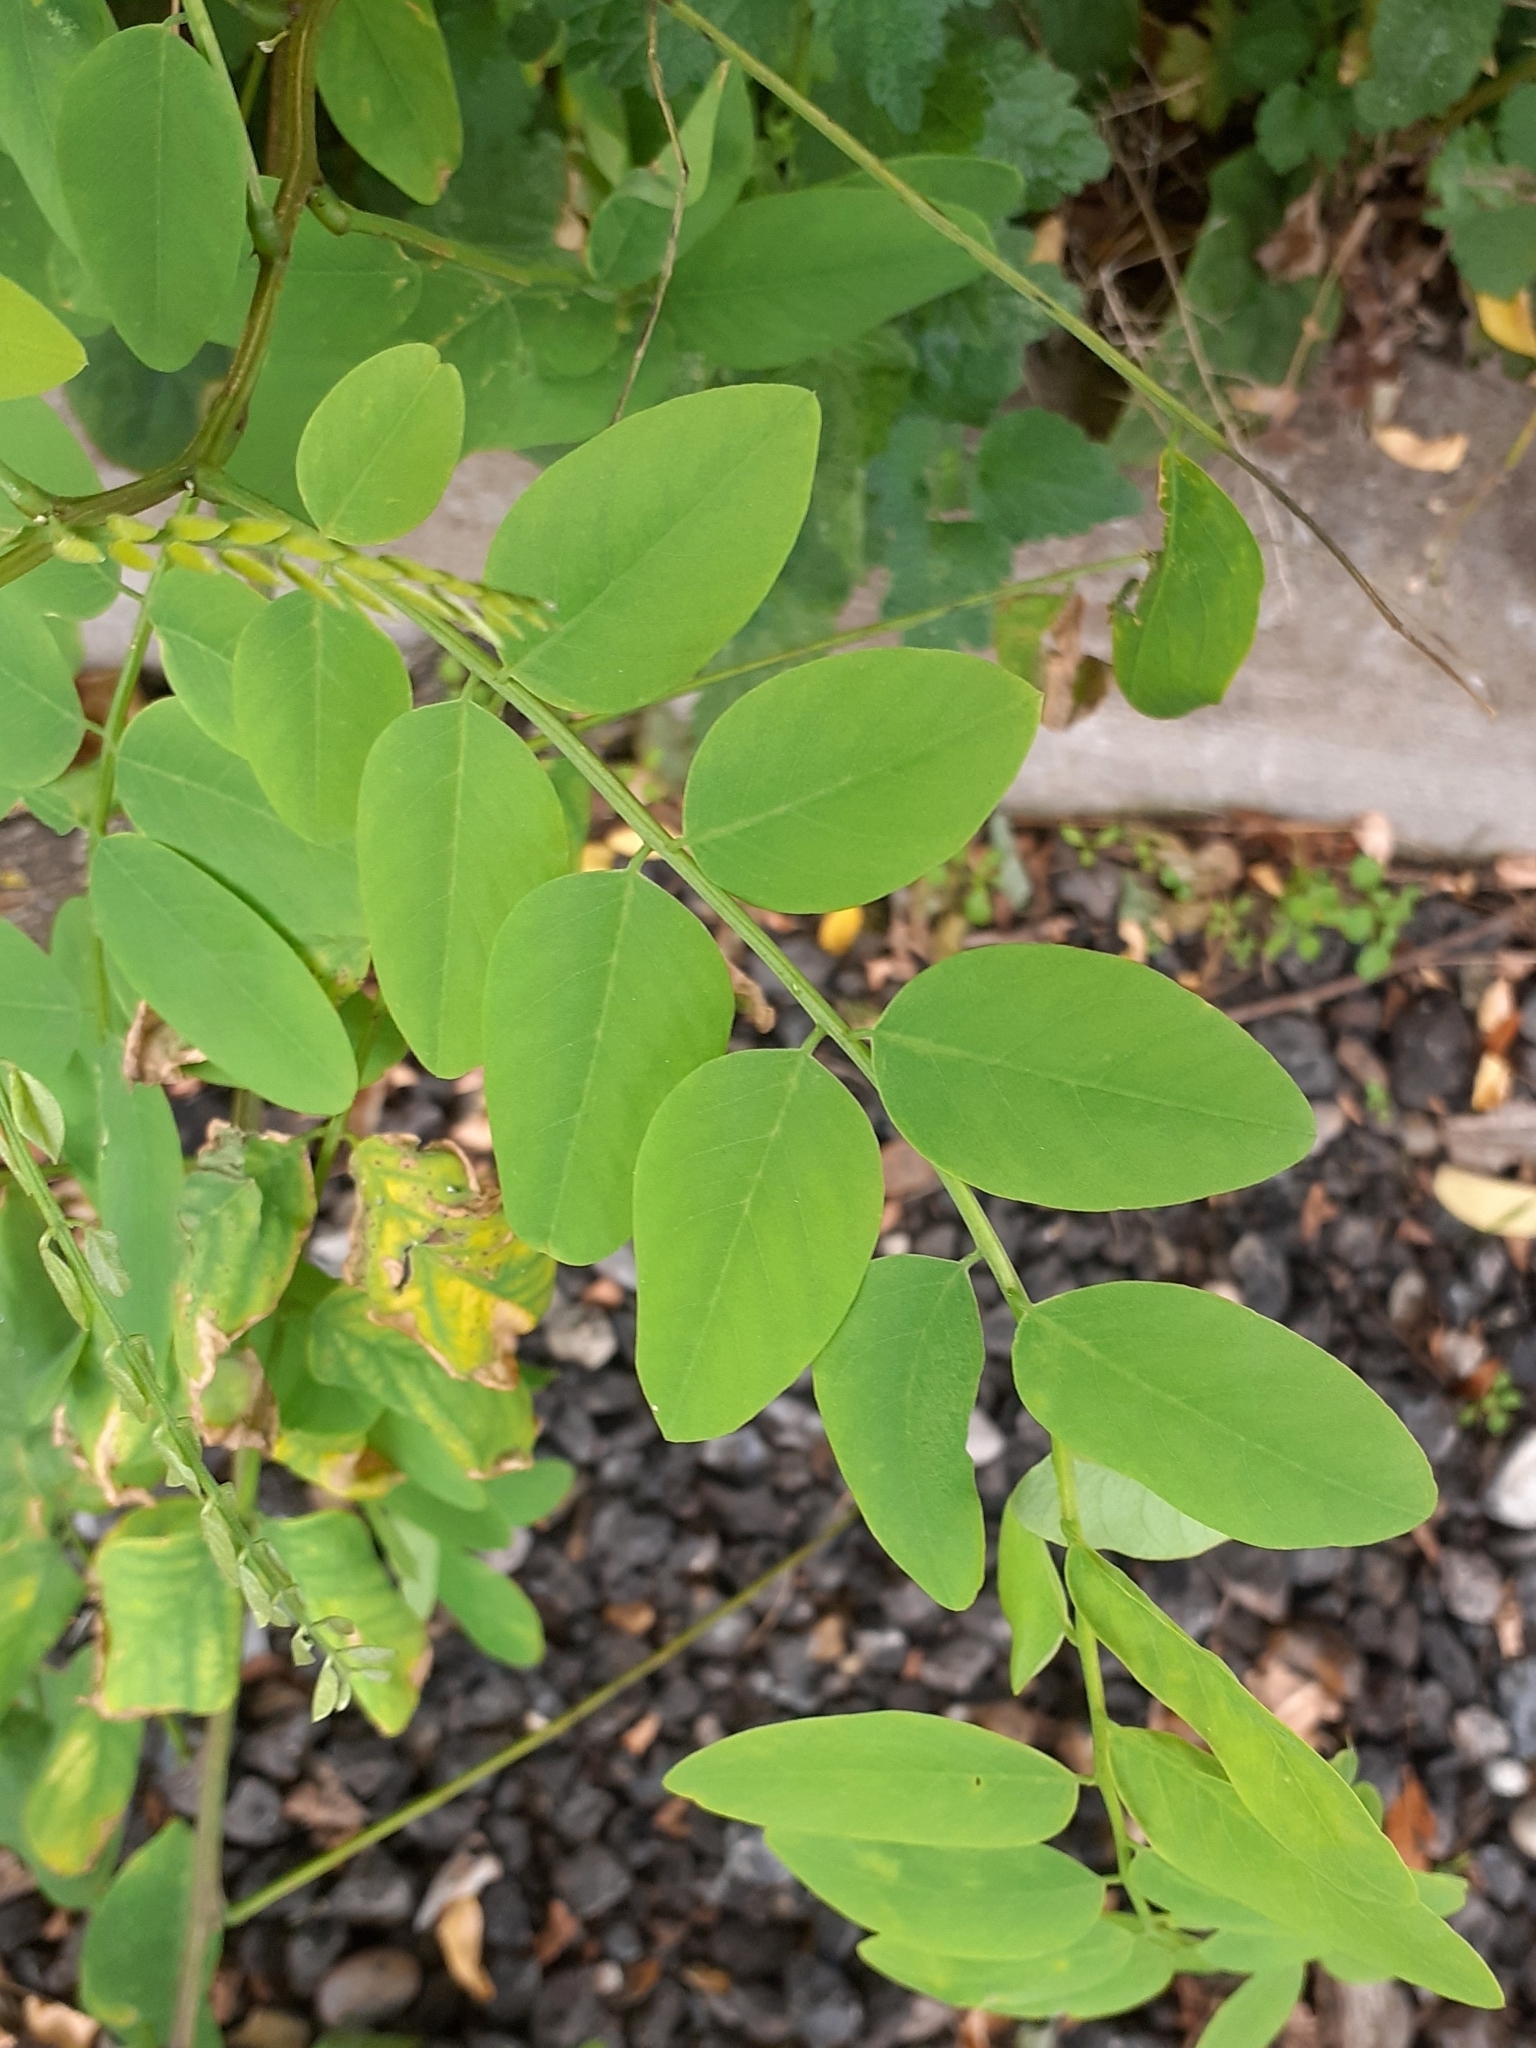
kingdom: Plantae
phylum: Tracheophyta
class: Magnoliopsida
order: Fabales
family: Fabaceae
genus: Robinia
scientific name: Robinia pseudoacacia
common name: Black locust
